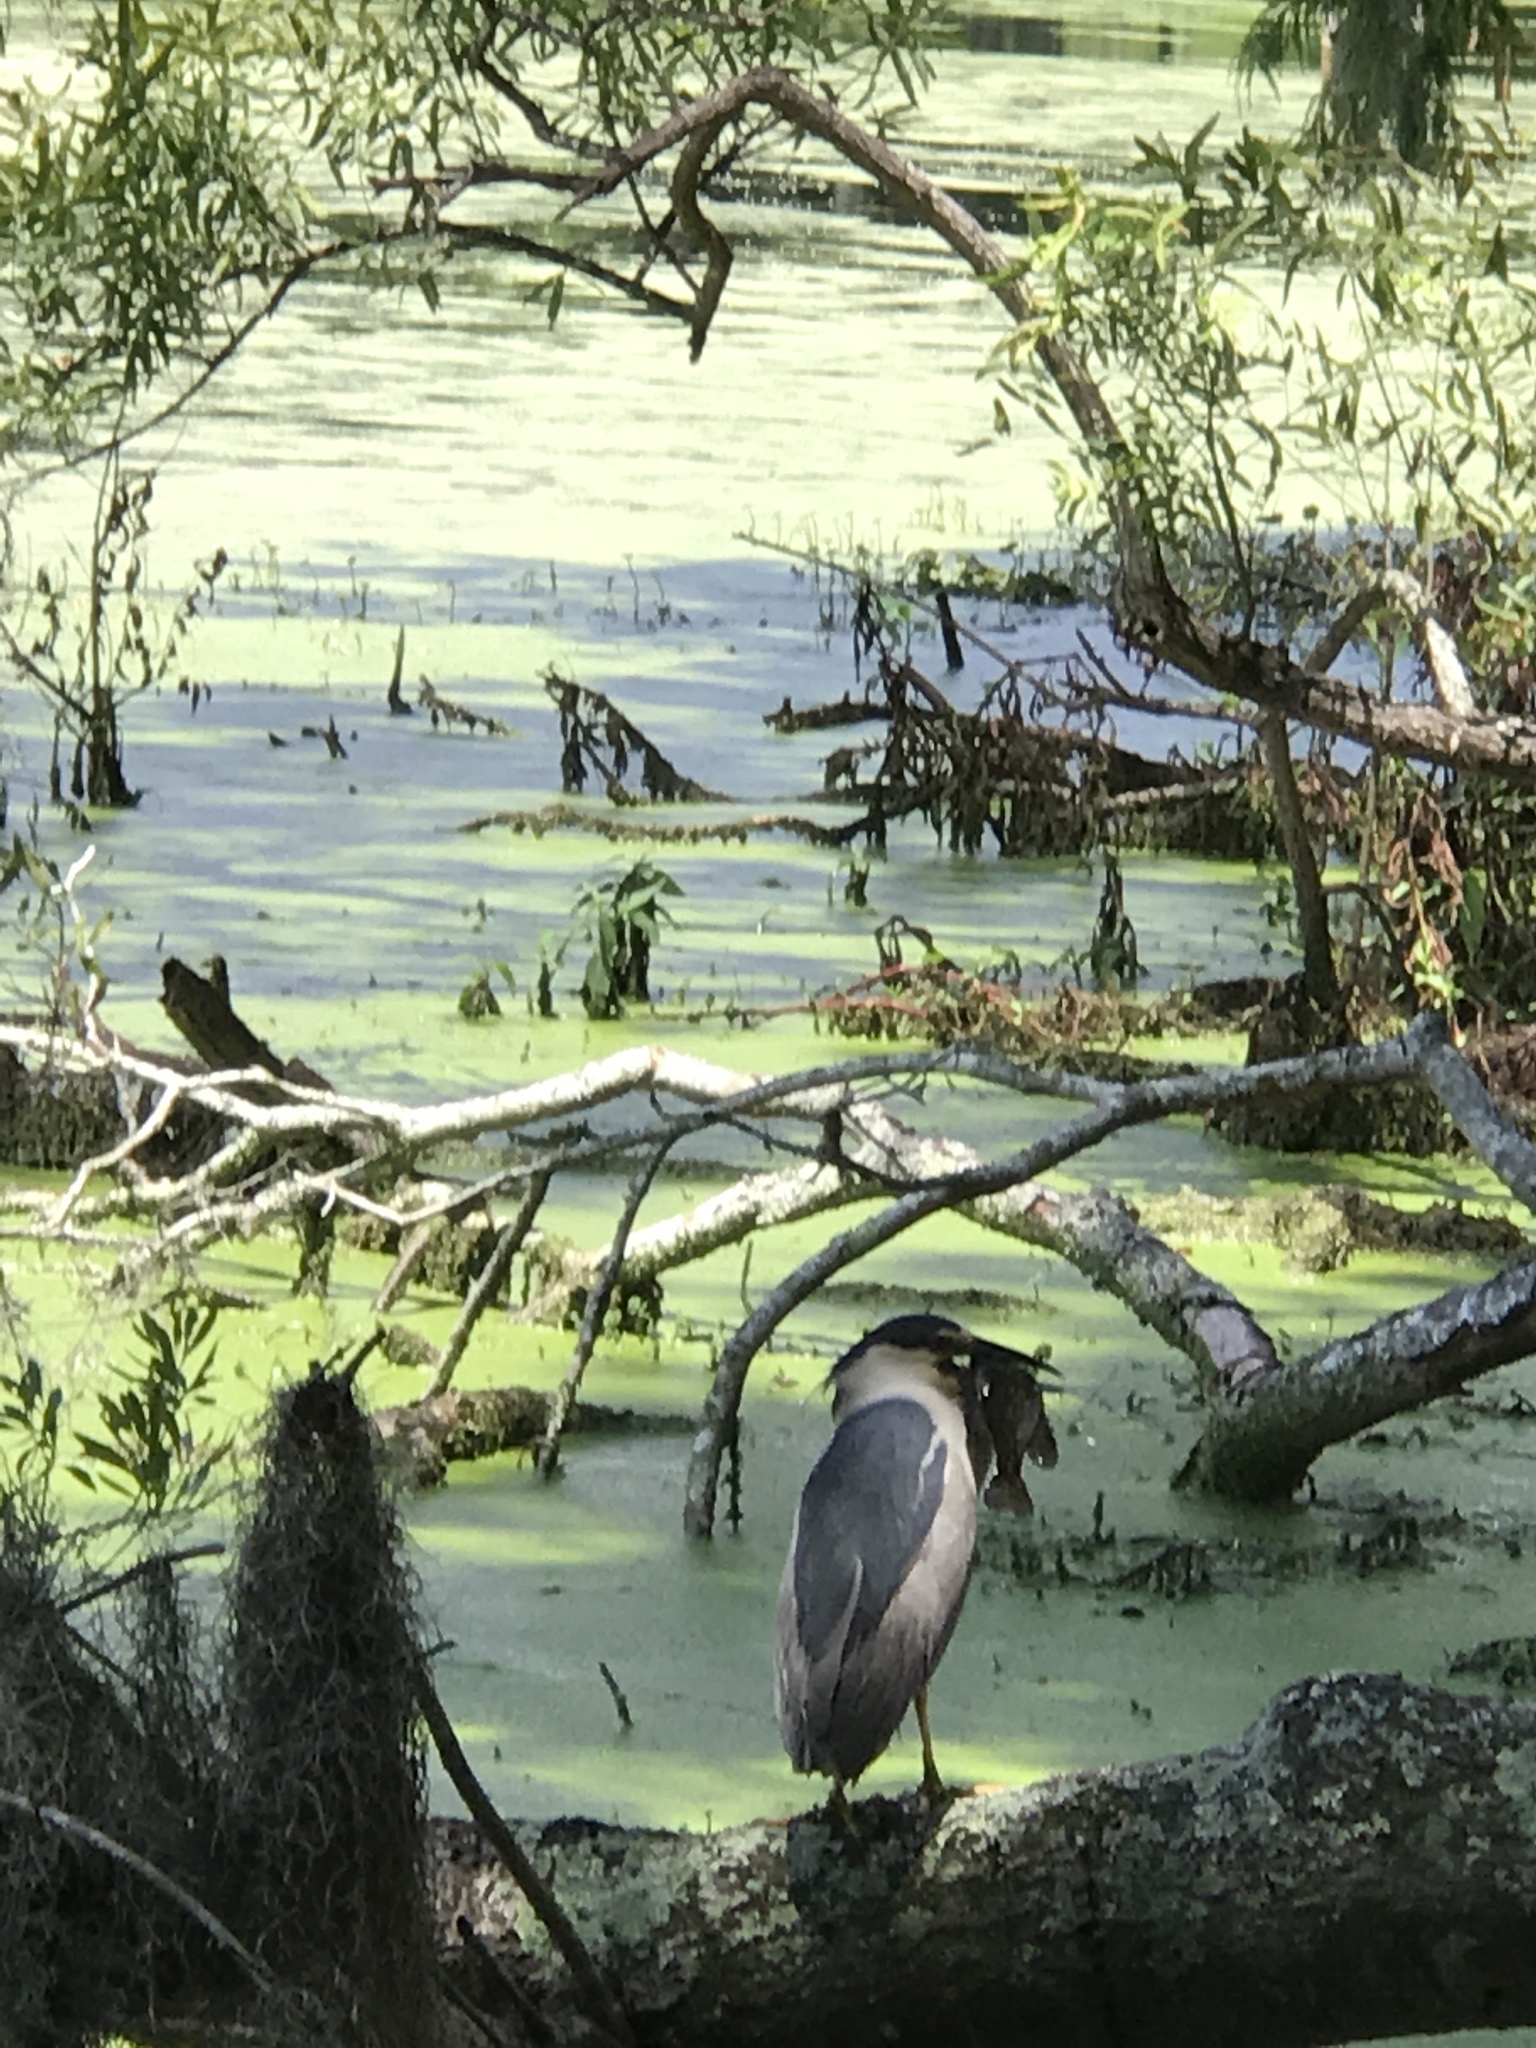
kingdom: Animalia
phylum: Chordata
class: Aves
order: Pelecaniformes
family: Ardeidae
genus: Nycticorax
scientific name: Nycticorax nycticorax
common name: Black-crowned night heron
